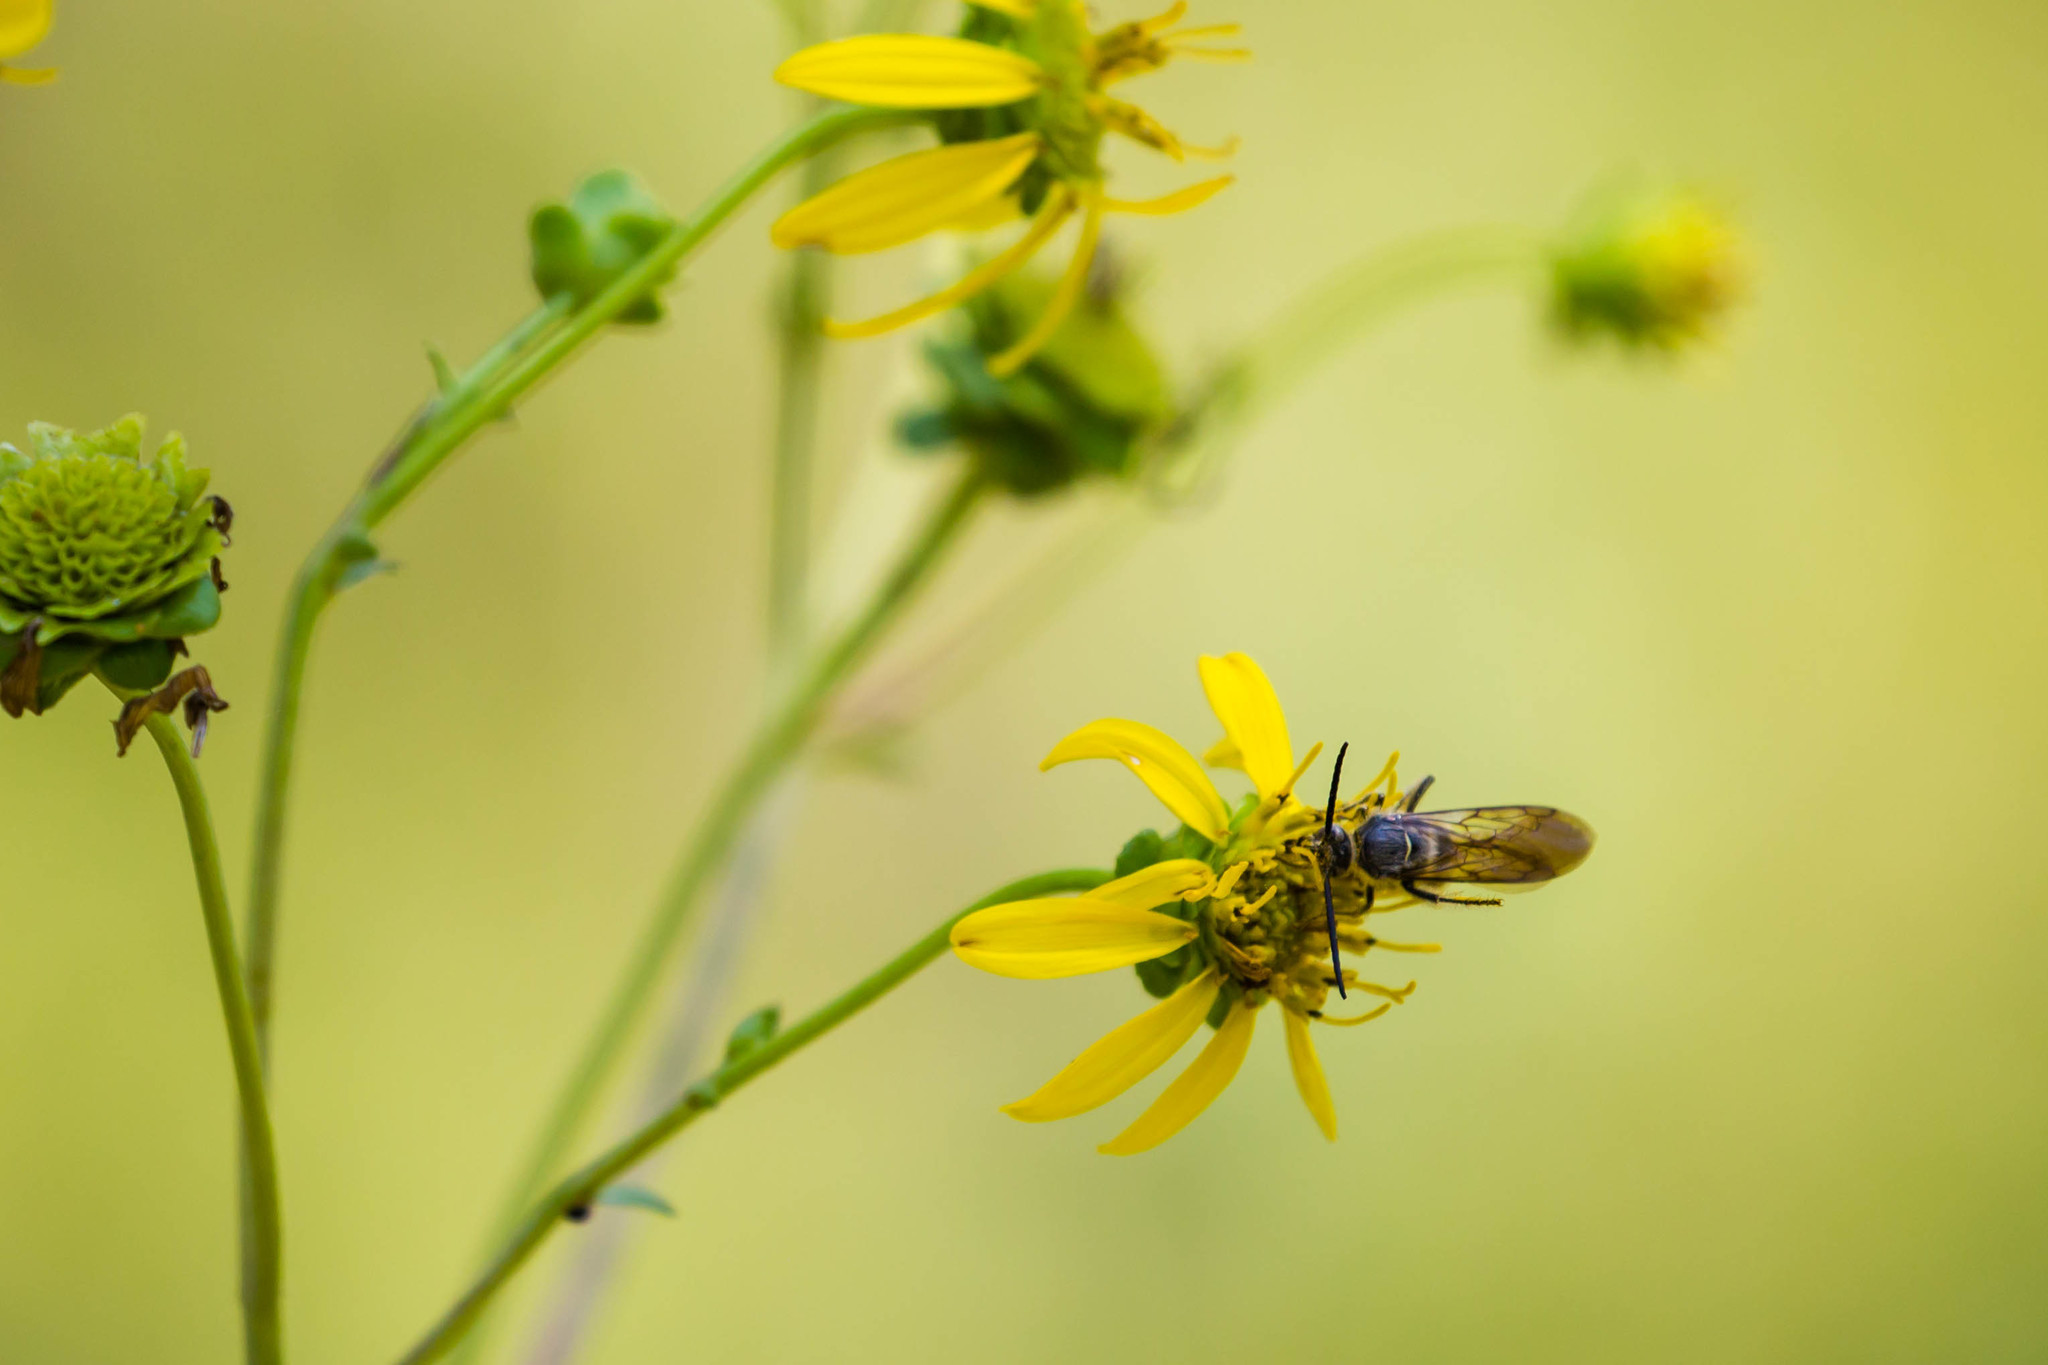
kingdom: Animalia
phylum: Arthropoda
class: Insecta
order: Hymenoptera
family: Scoliidae
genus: Dielis
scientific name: Dielis
